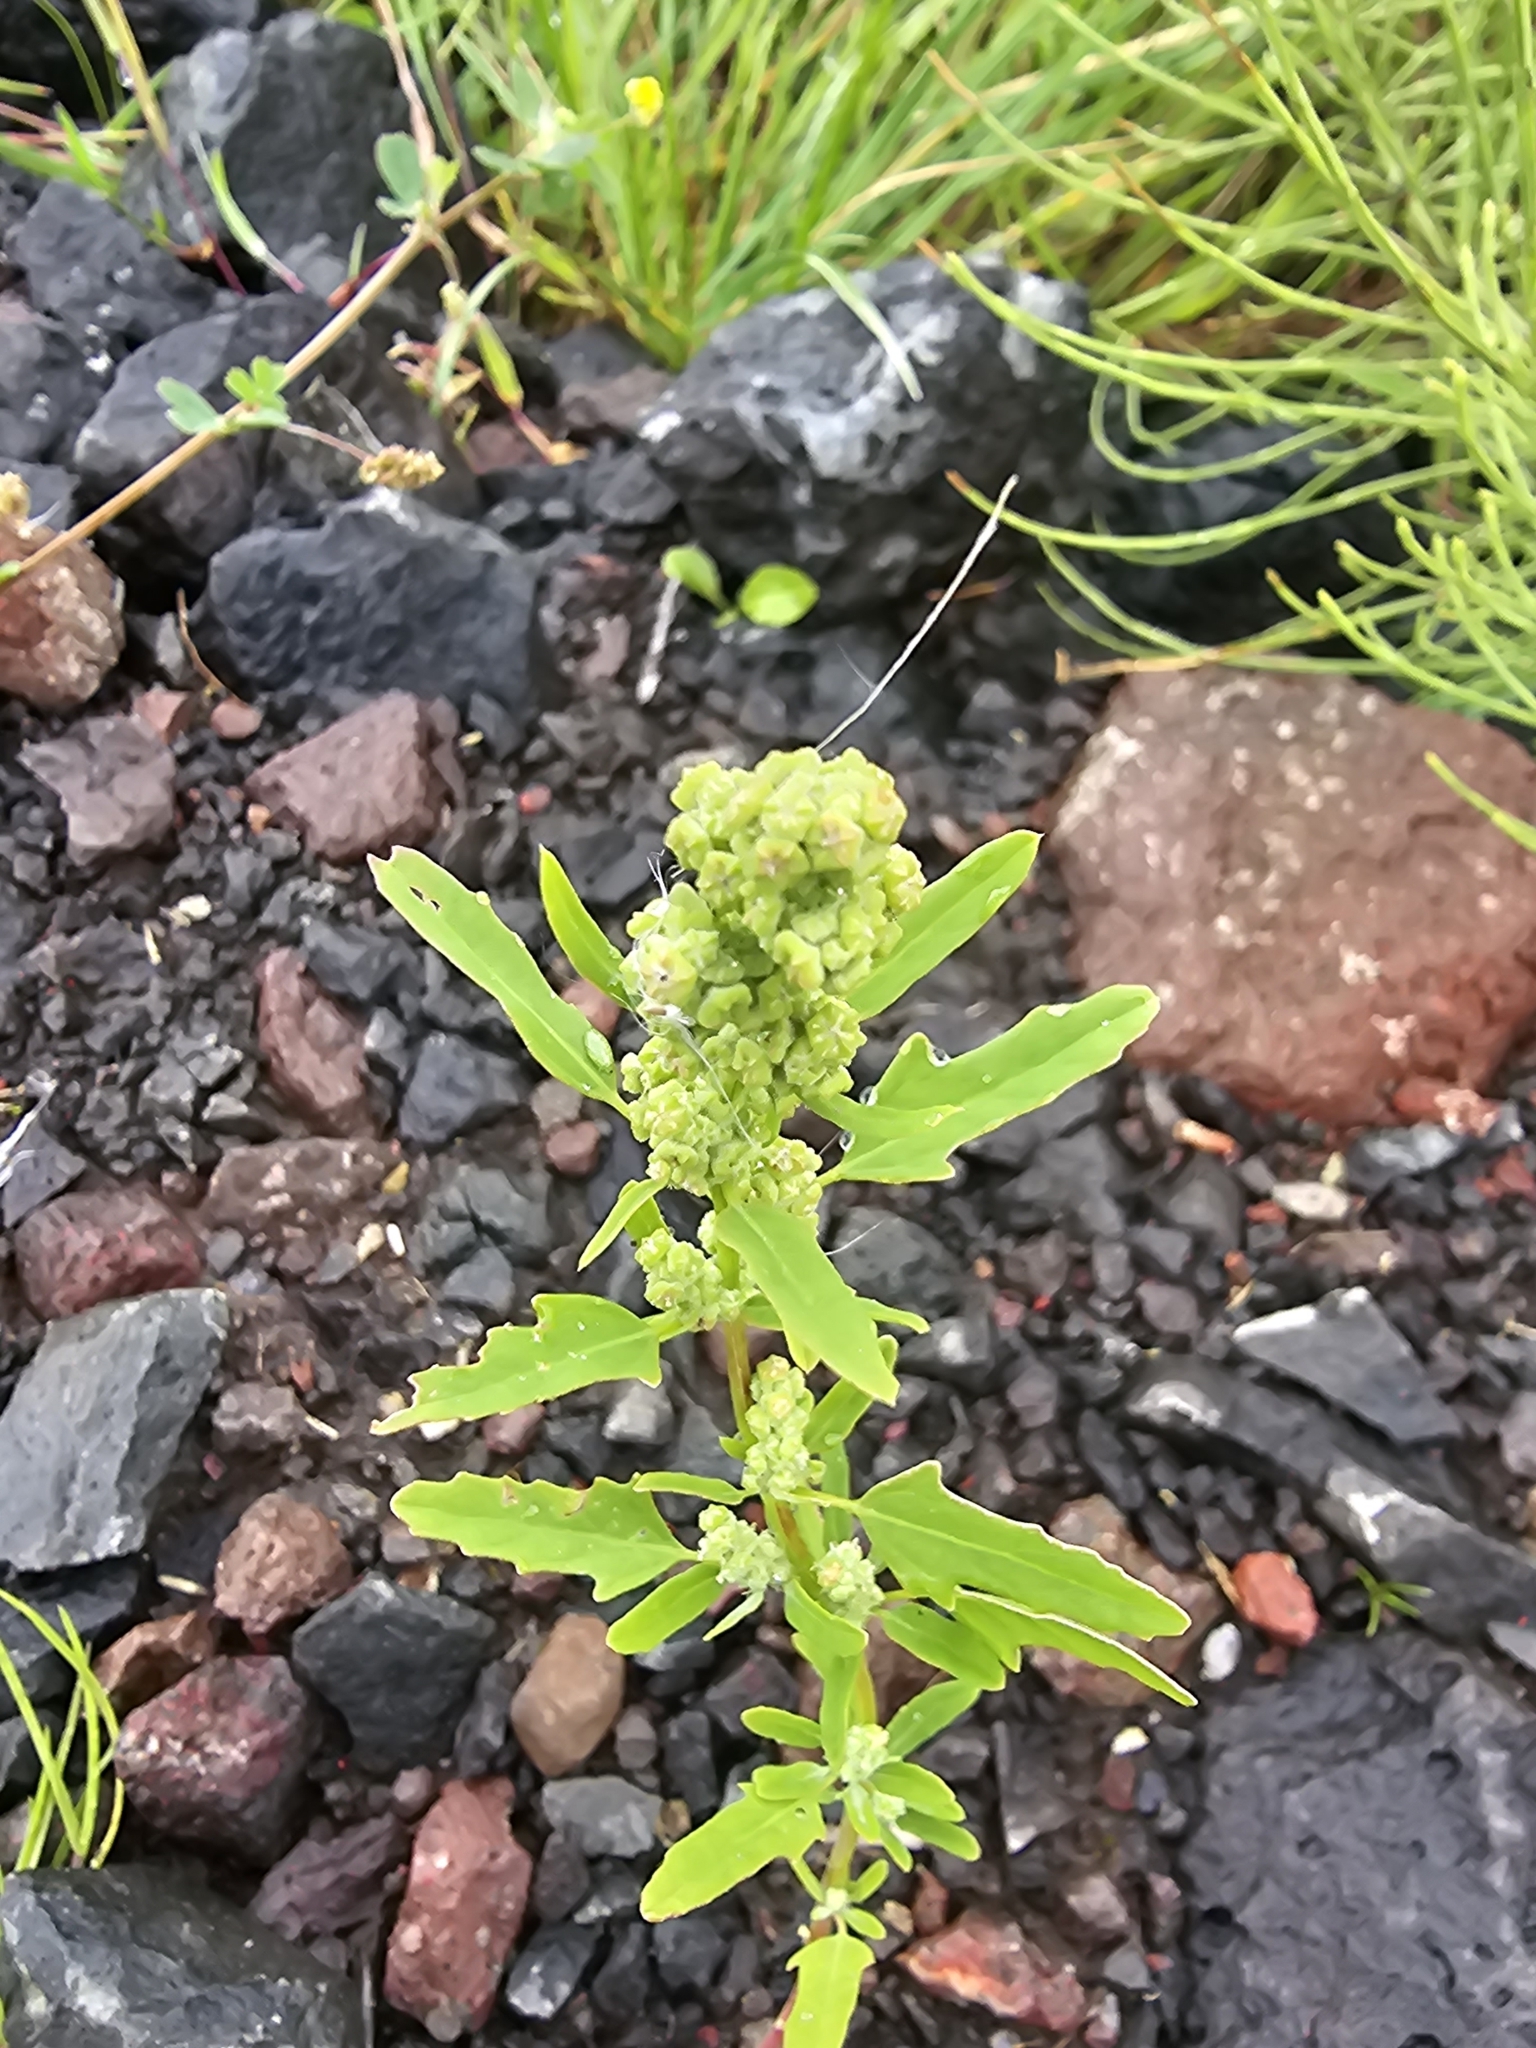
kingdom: Plantae
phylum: Tracheophyta
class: Magnoliopsida
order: Caryophyllales
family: Amaranthaceae
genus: Chenopodium
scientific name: Chenopodium ficifolium
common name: Fig-leaved goosefoot
